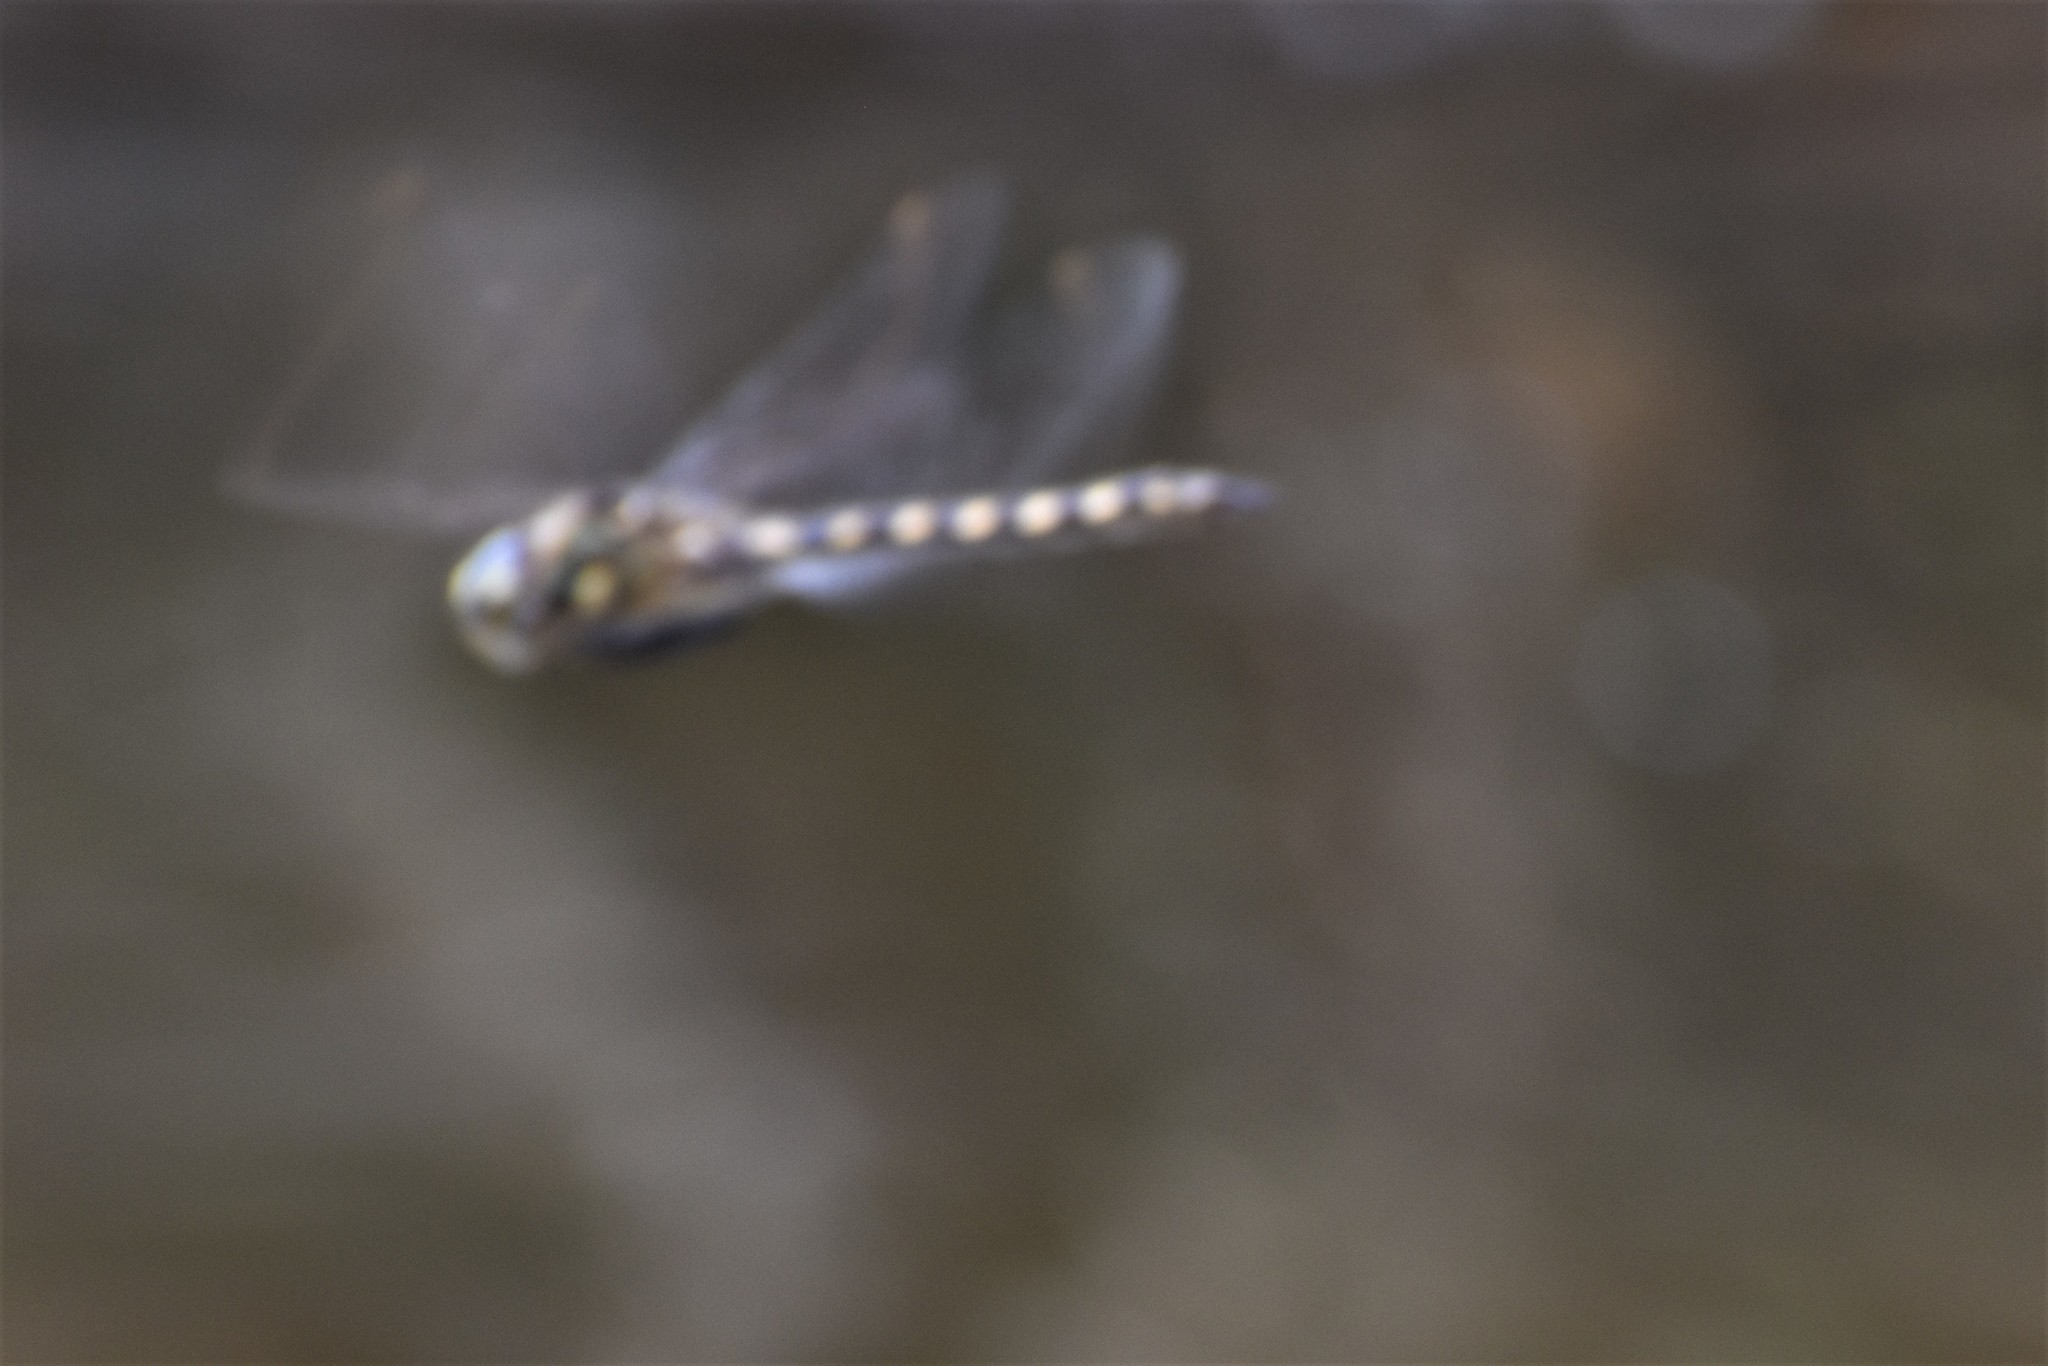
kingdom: Animalia
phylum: Arthropoda
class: Insecta
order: Odonata
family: Corduliidae
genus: Procordulia
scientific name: Procordulia grayi
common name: Yellow spotted dragonfly
